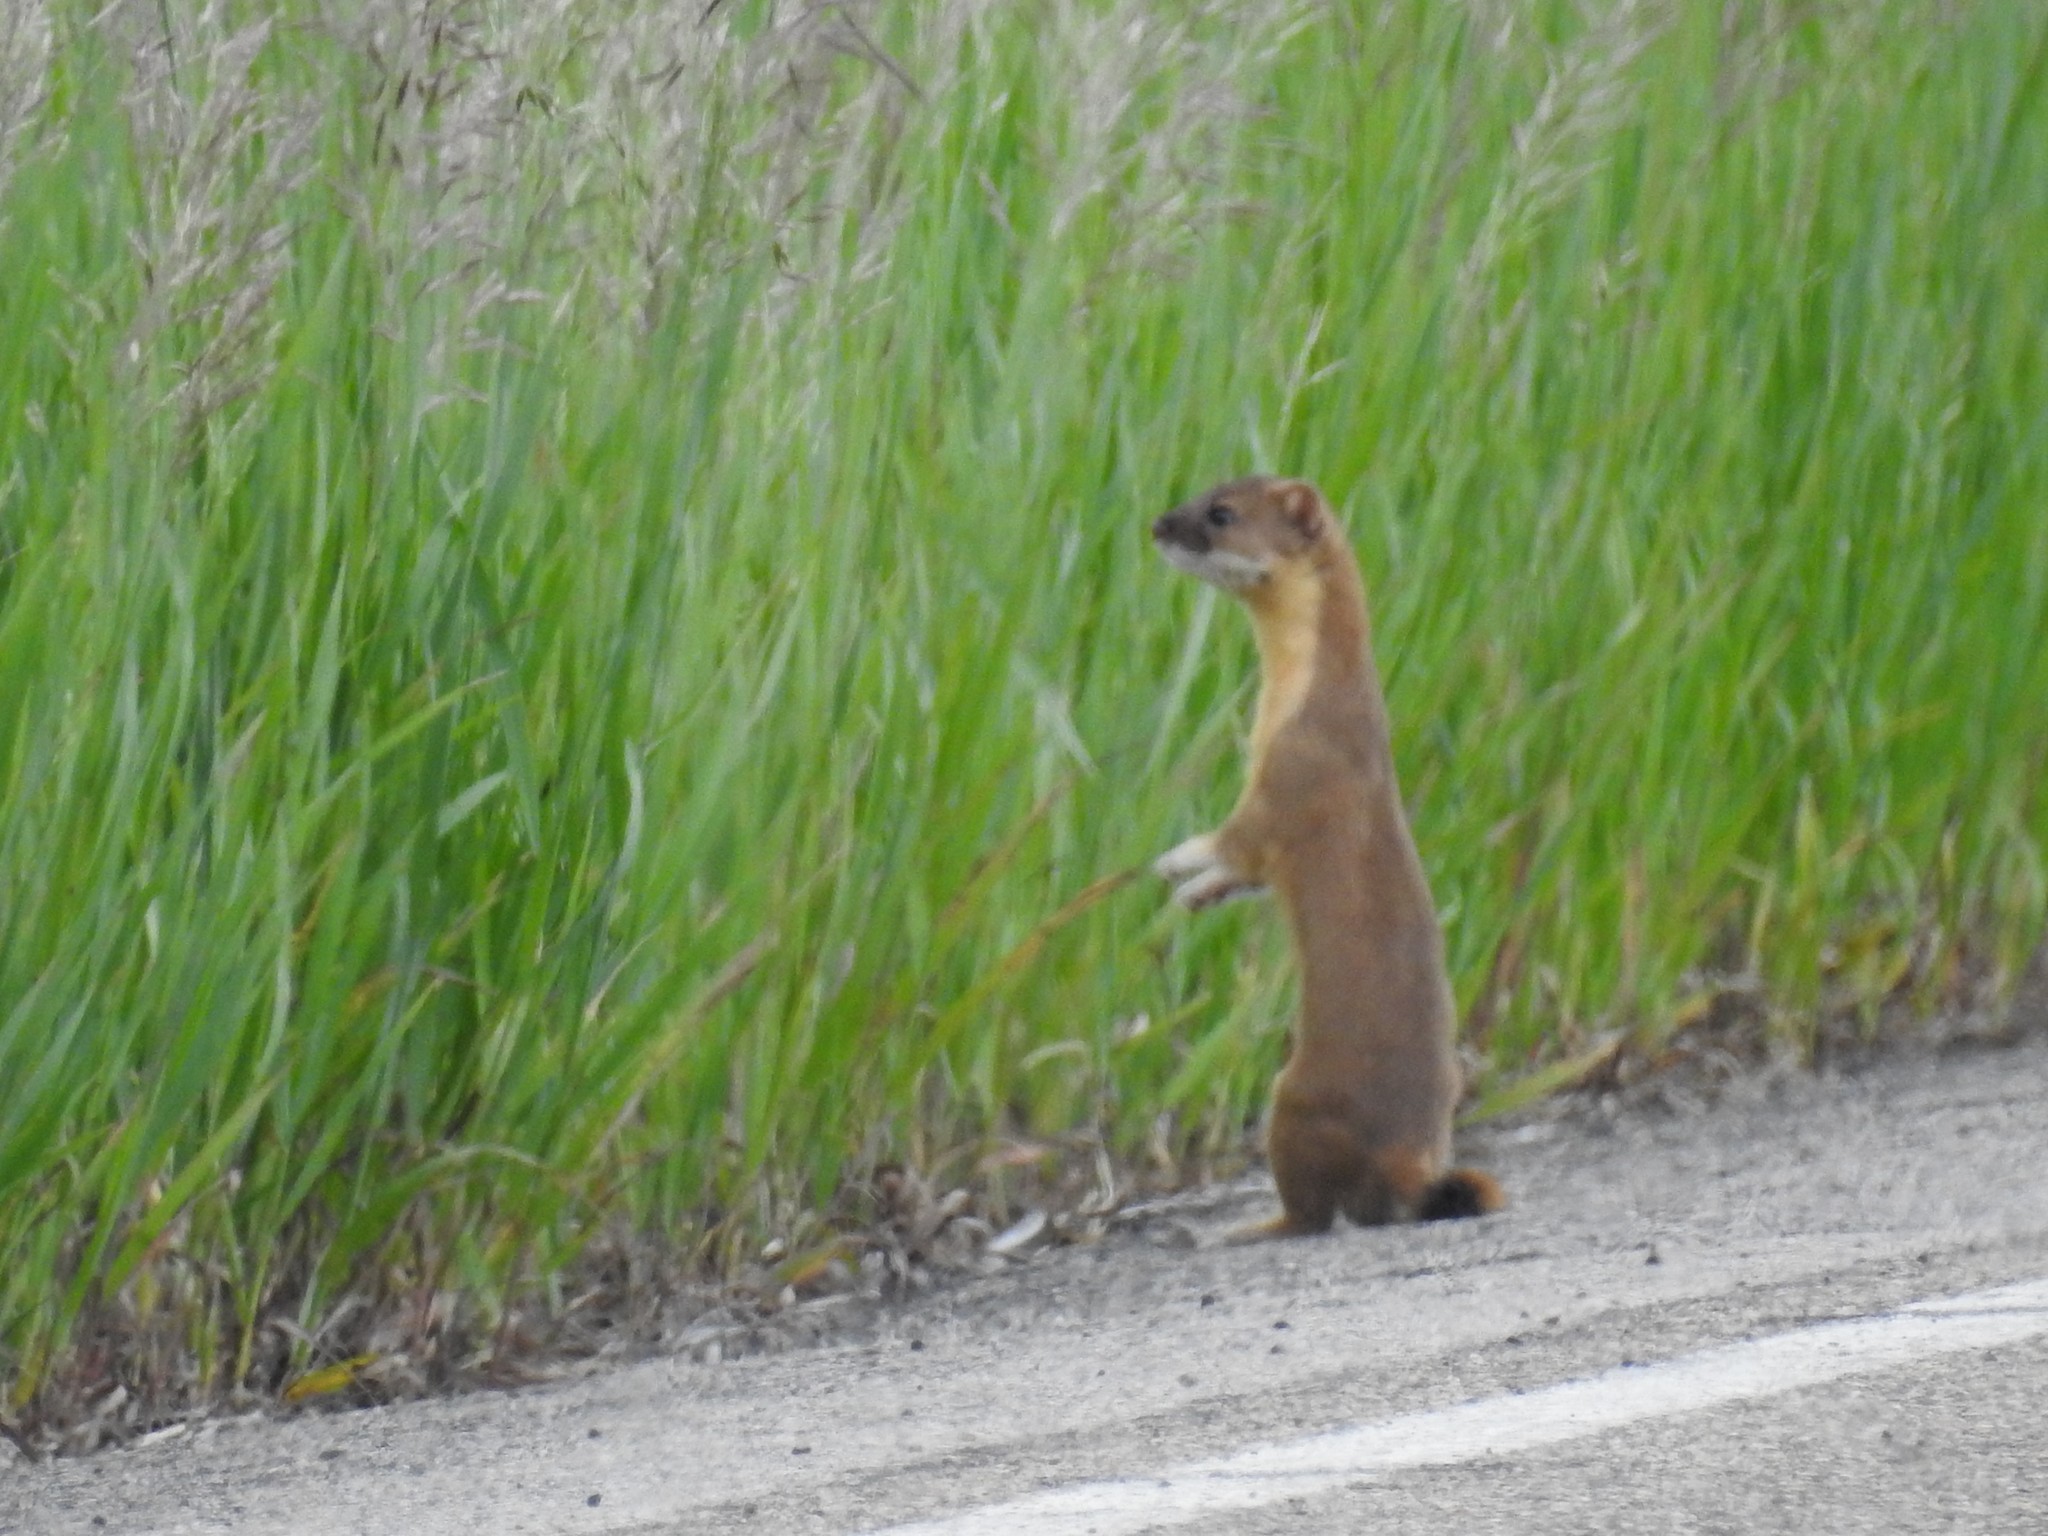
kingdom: Animalia
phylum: Chordata
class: Mammalia
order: Carnivora
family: Mustelidae
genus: Mustela
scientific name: Mustela
